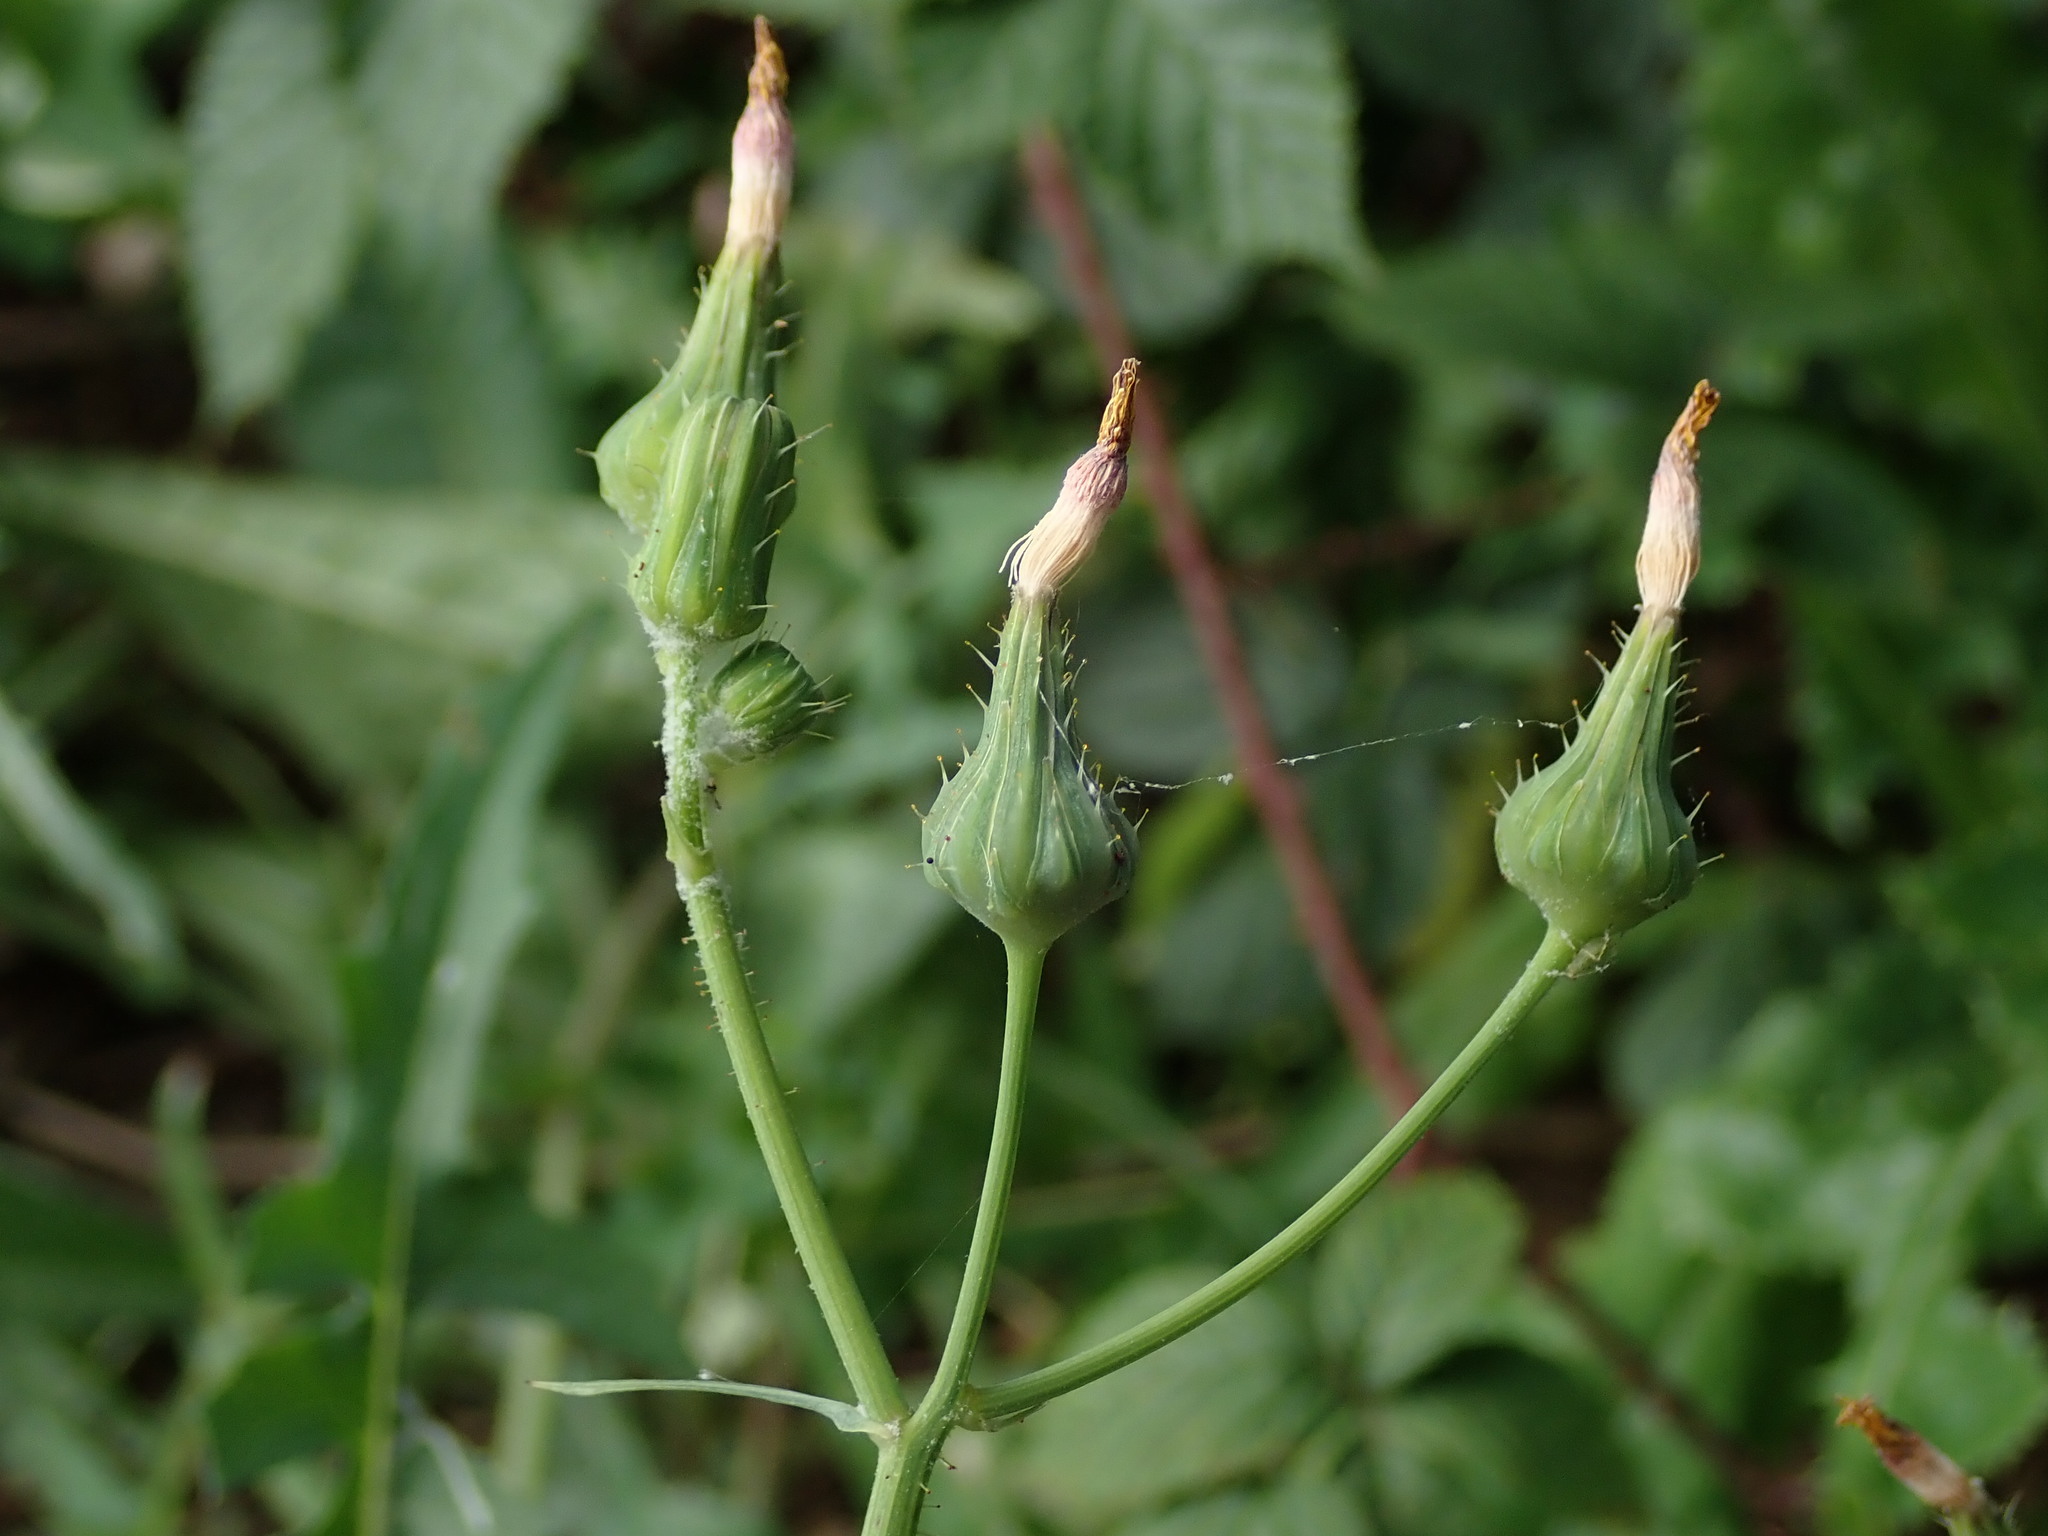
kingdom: Plantae
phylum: Tracheophyta
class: Magnoliopsida
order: Asterales
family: Asteraceae
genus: Sonchus
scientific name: Sonchus oleraceus
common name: Common sowthistle
